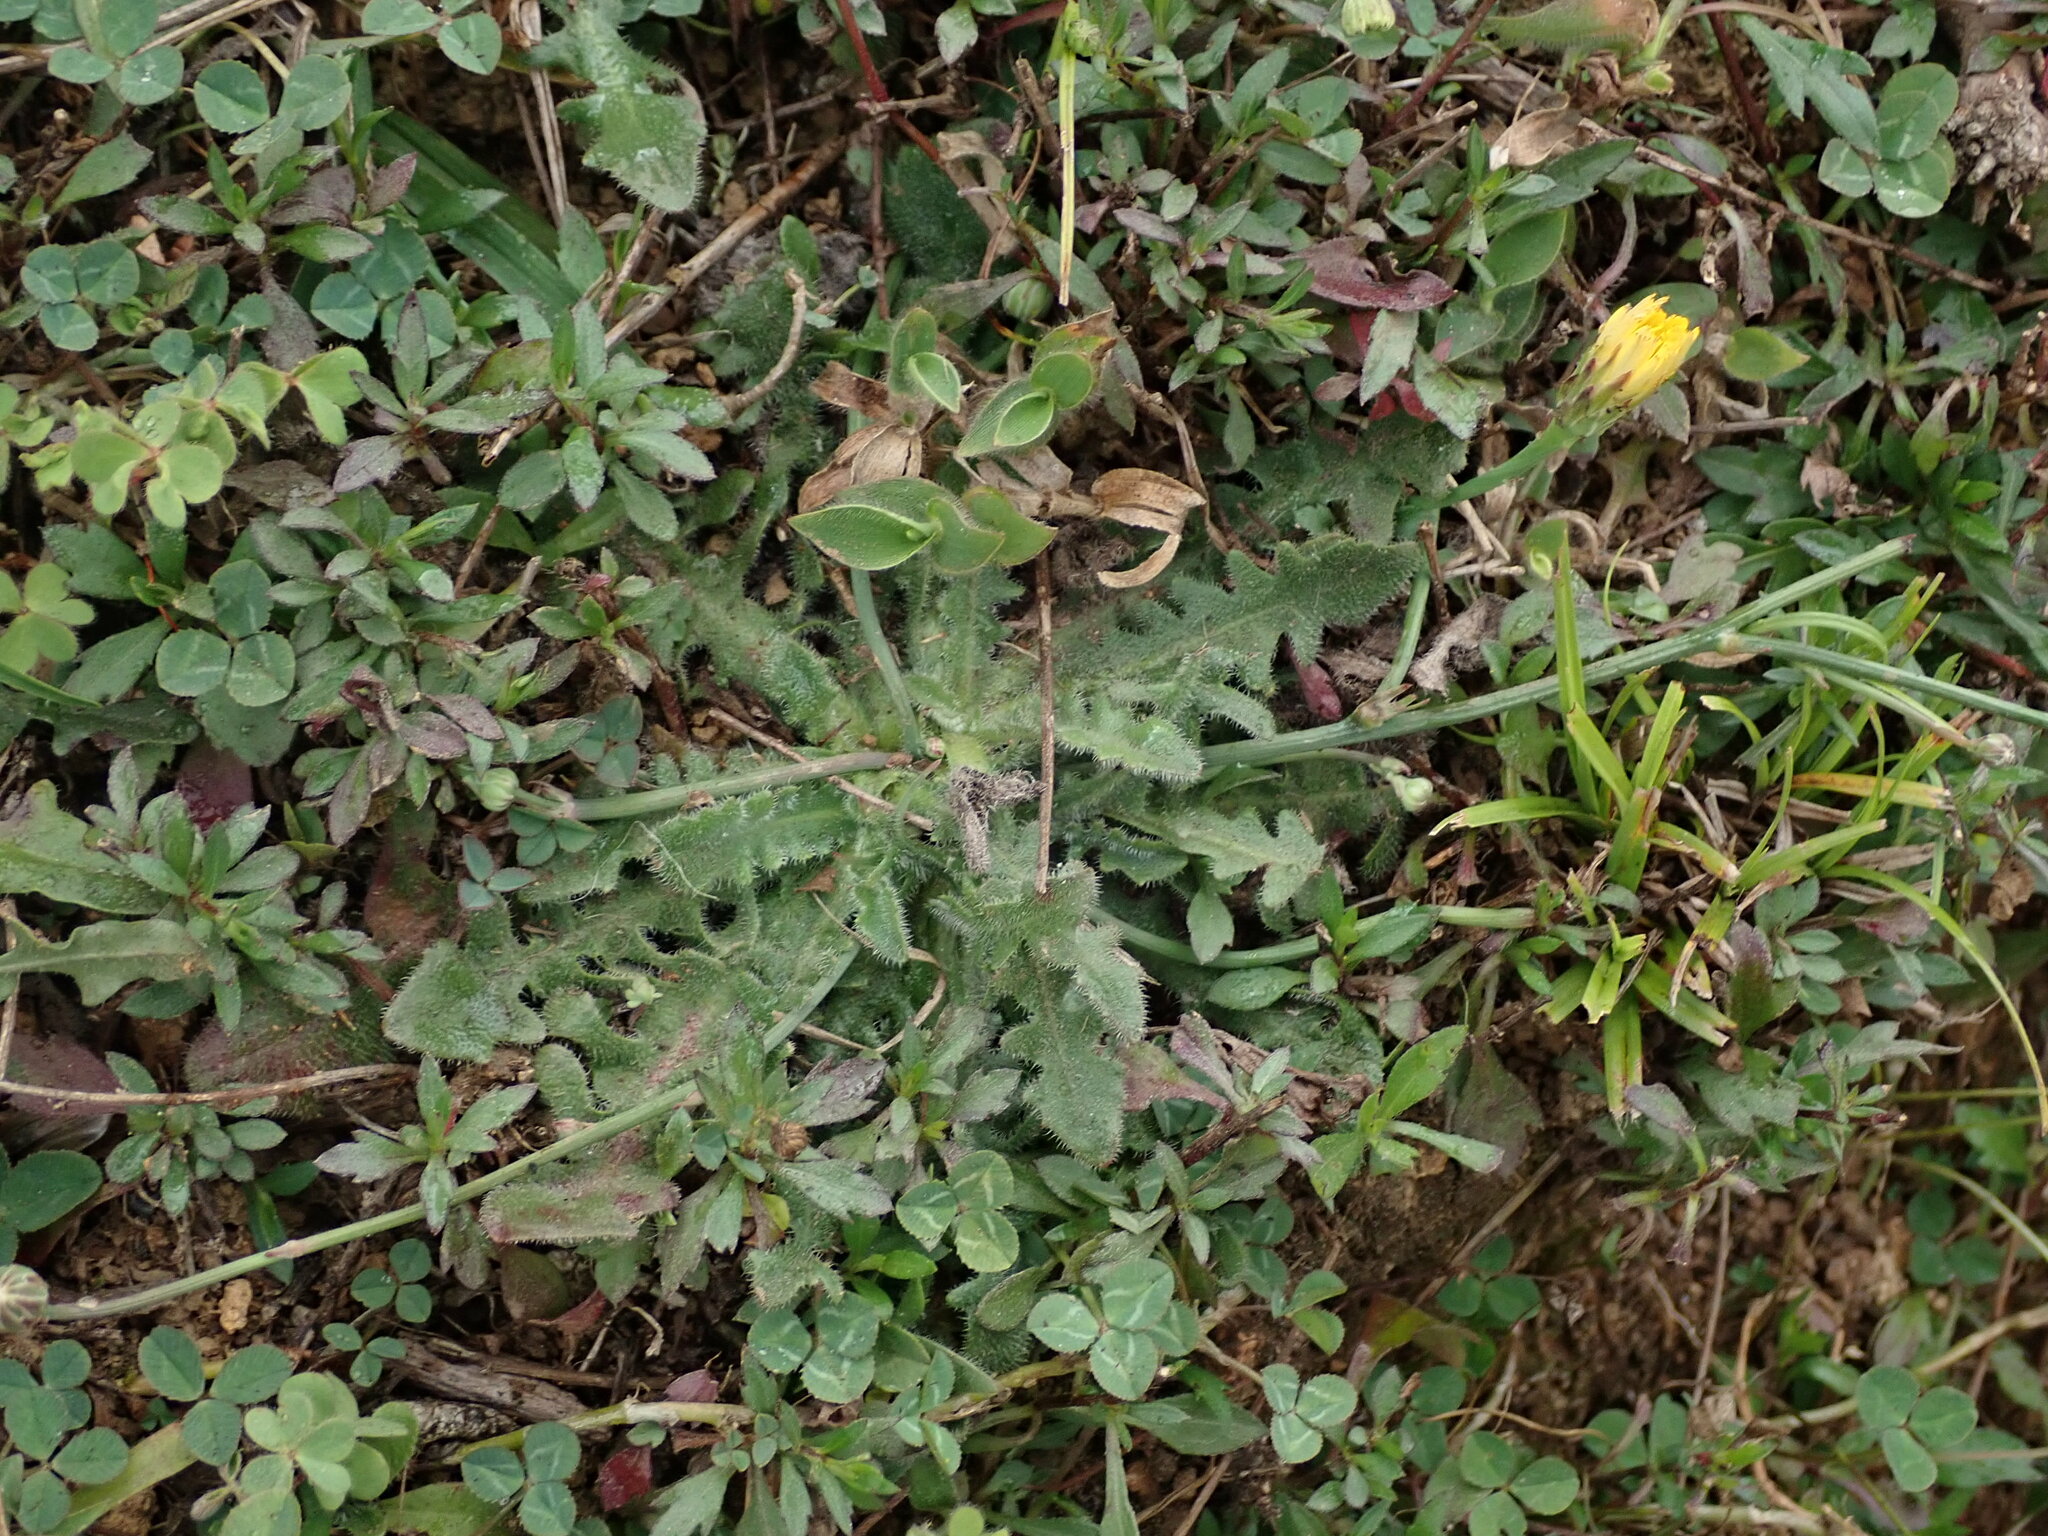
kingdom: Plantae
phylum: Tracheophyta
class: Magnoliopsida
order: Asterales
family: Asteraceae
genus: Hypochaeris
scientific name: Hypochaeris radicata
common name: Flatweed
